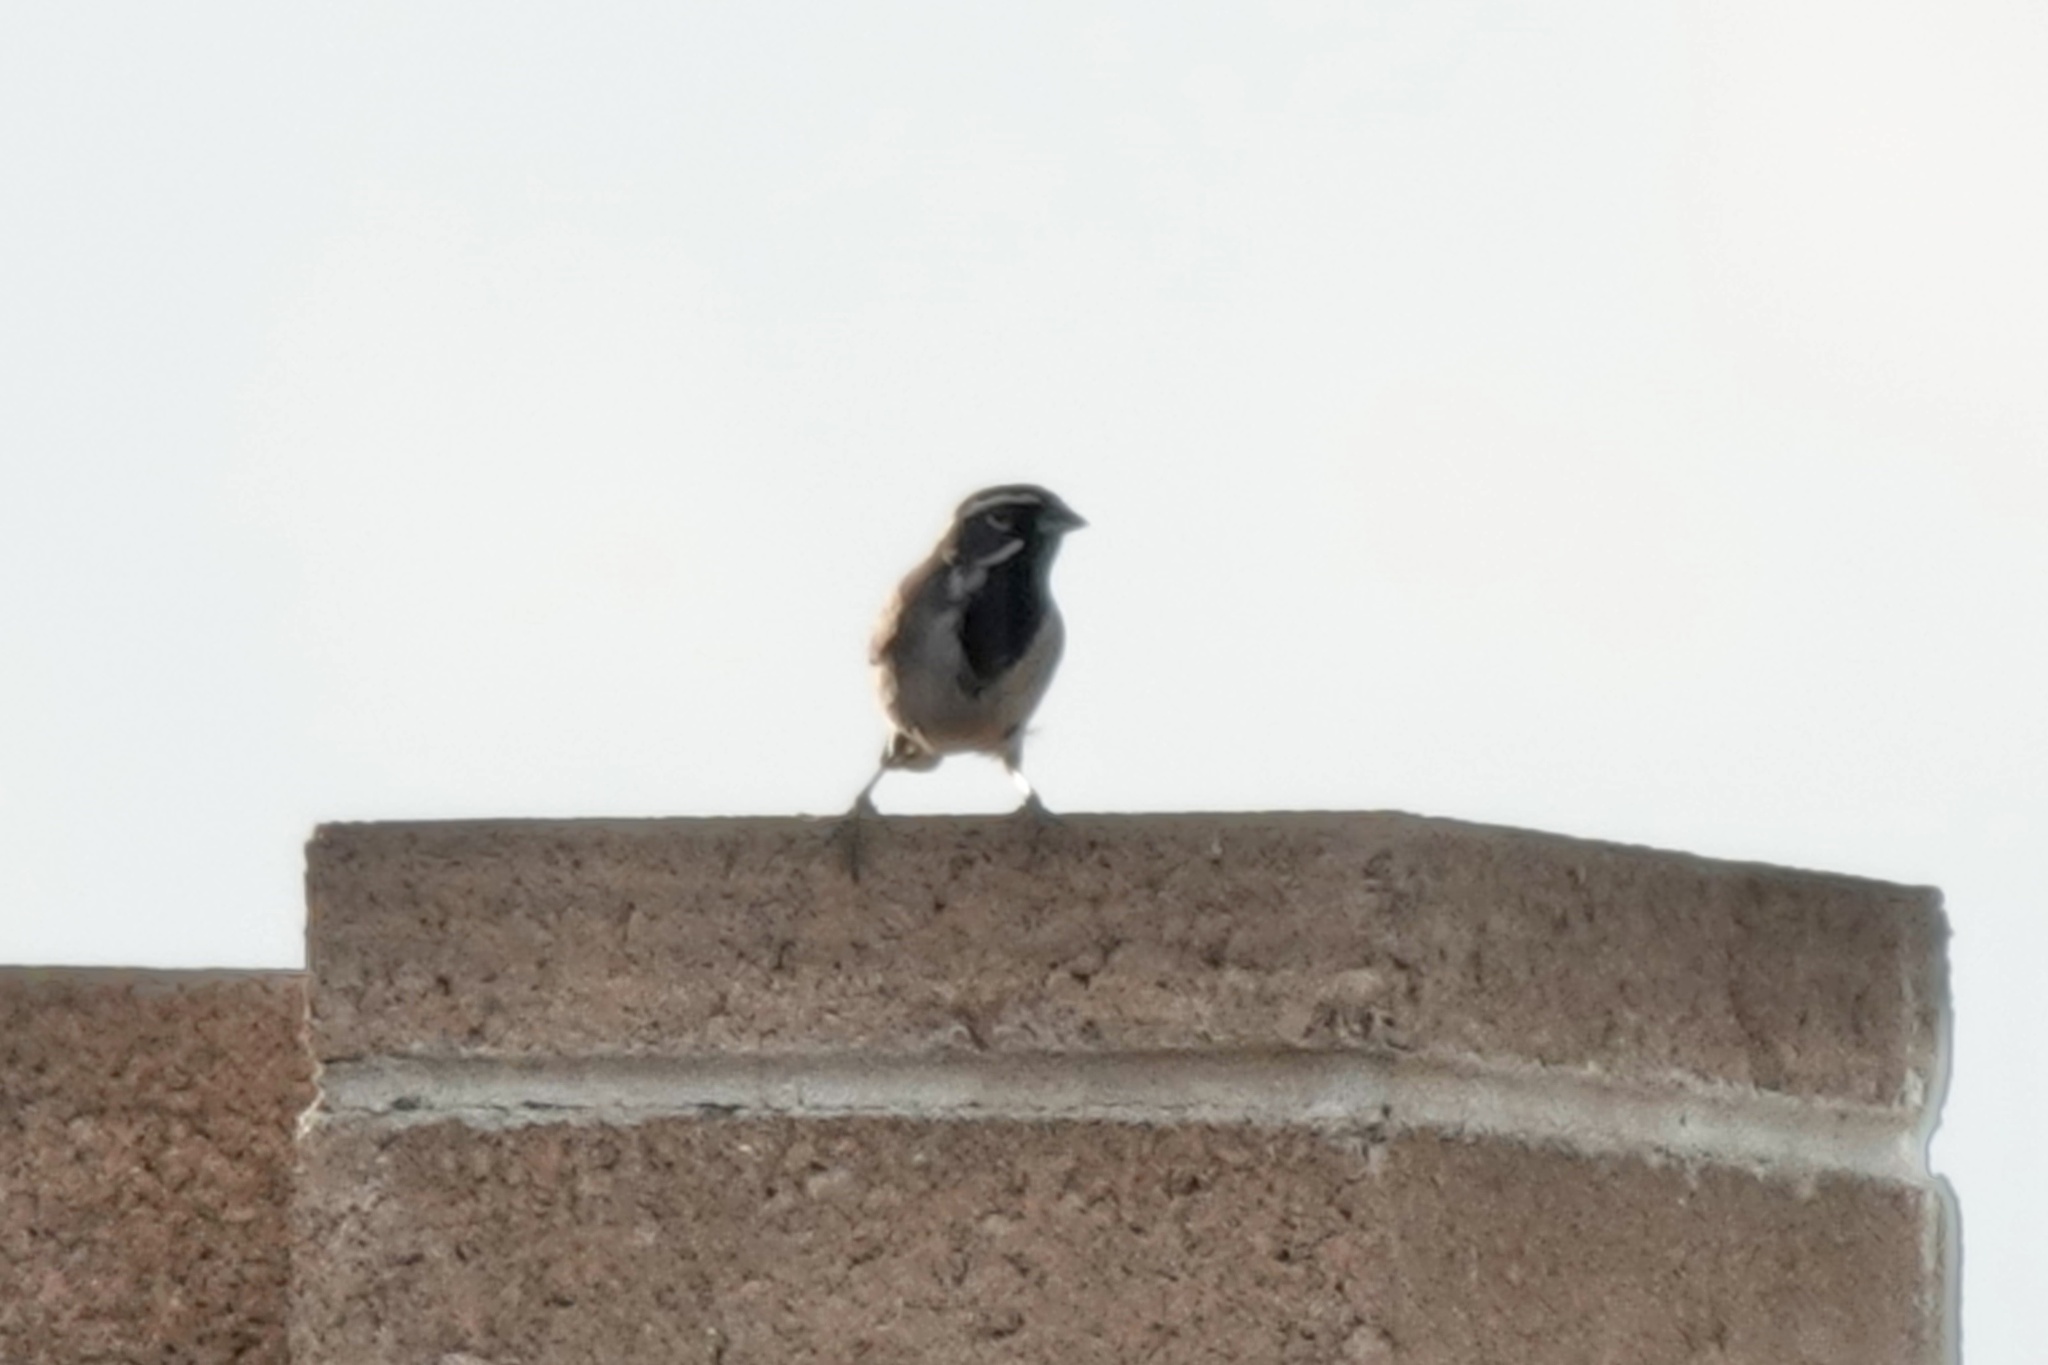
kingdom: Animalia
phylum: Chordata
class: Aves
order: Passeriformes
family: Passerellidae
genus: Amphispiza
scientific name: Amphispiza bilineata
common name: Black-throated sparrow
